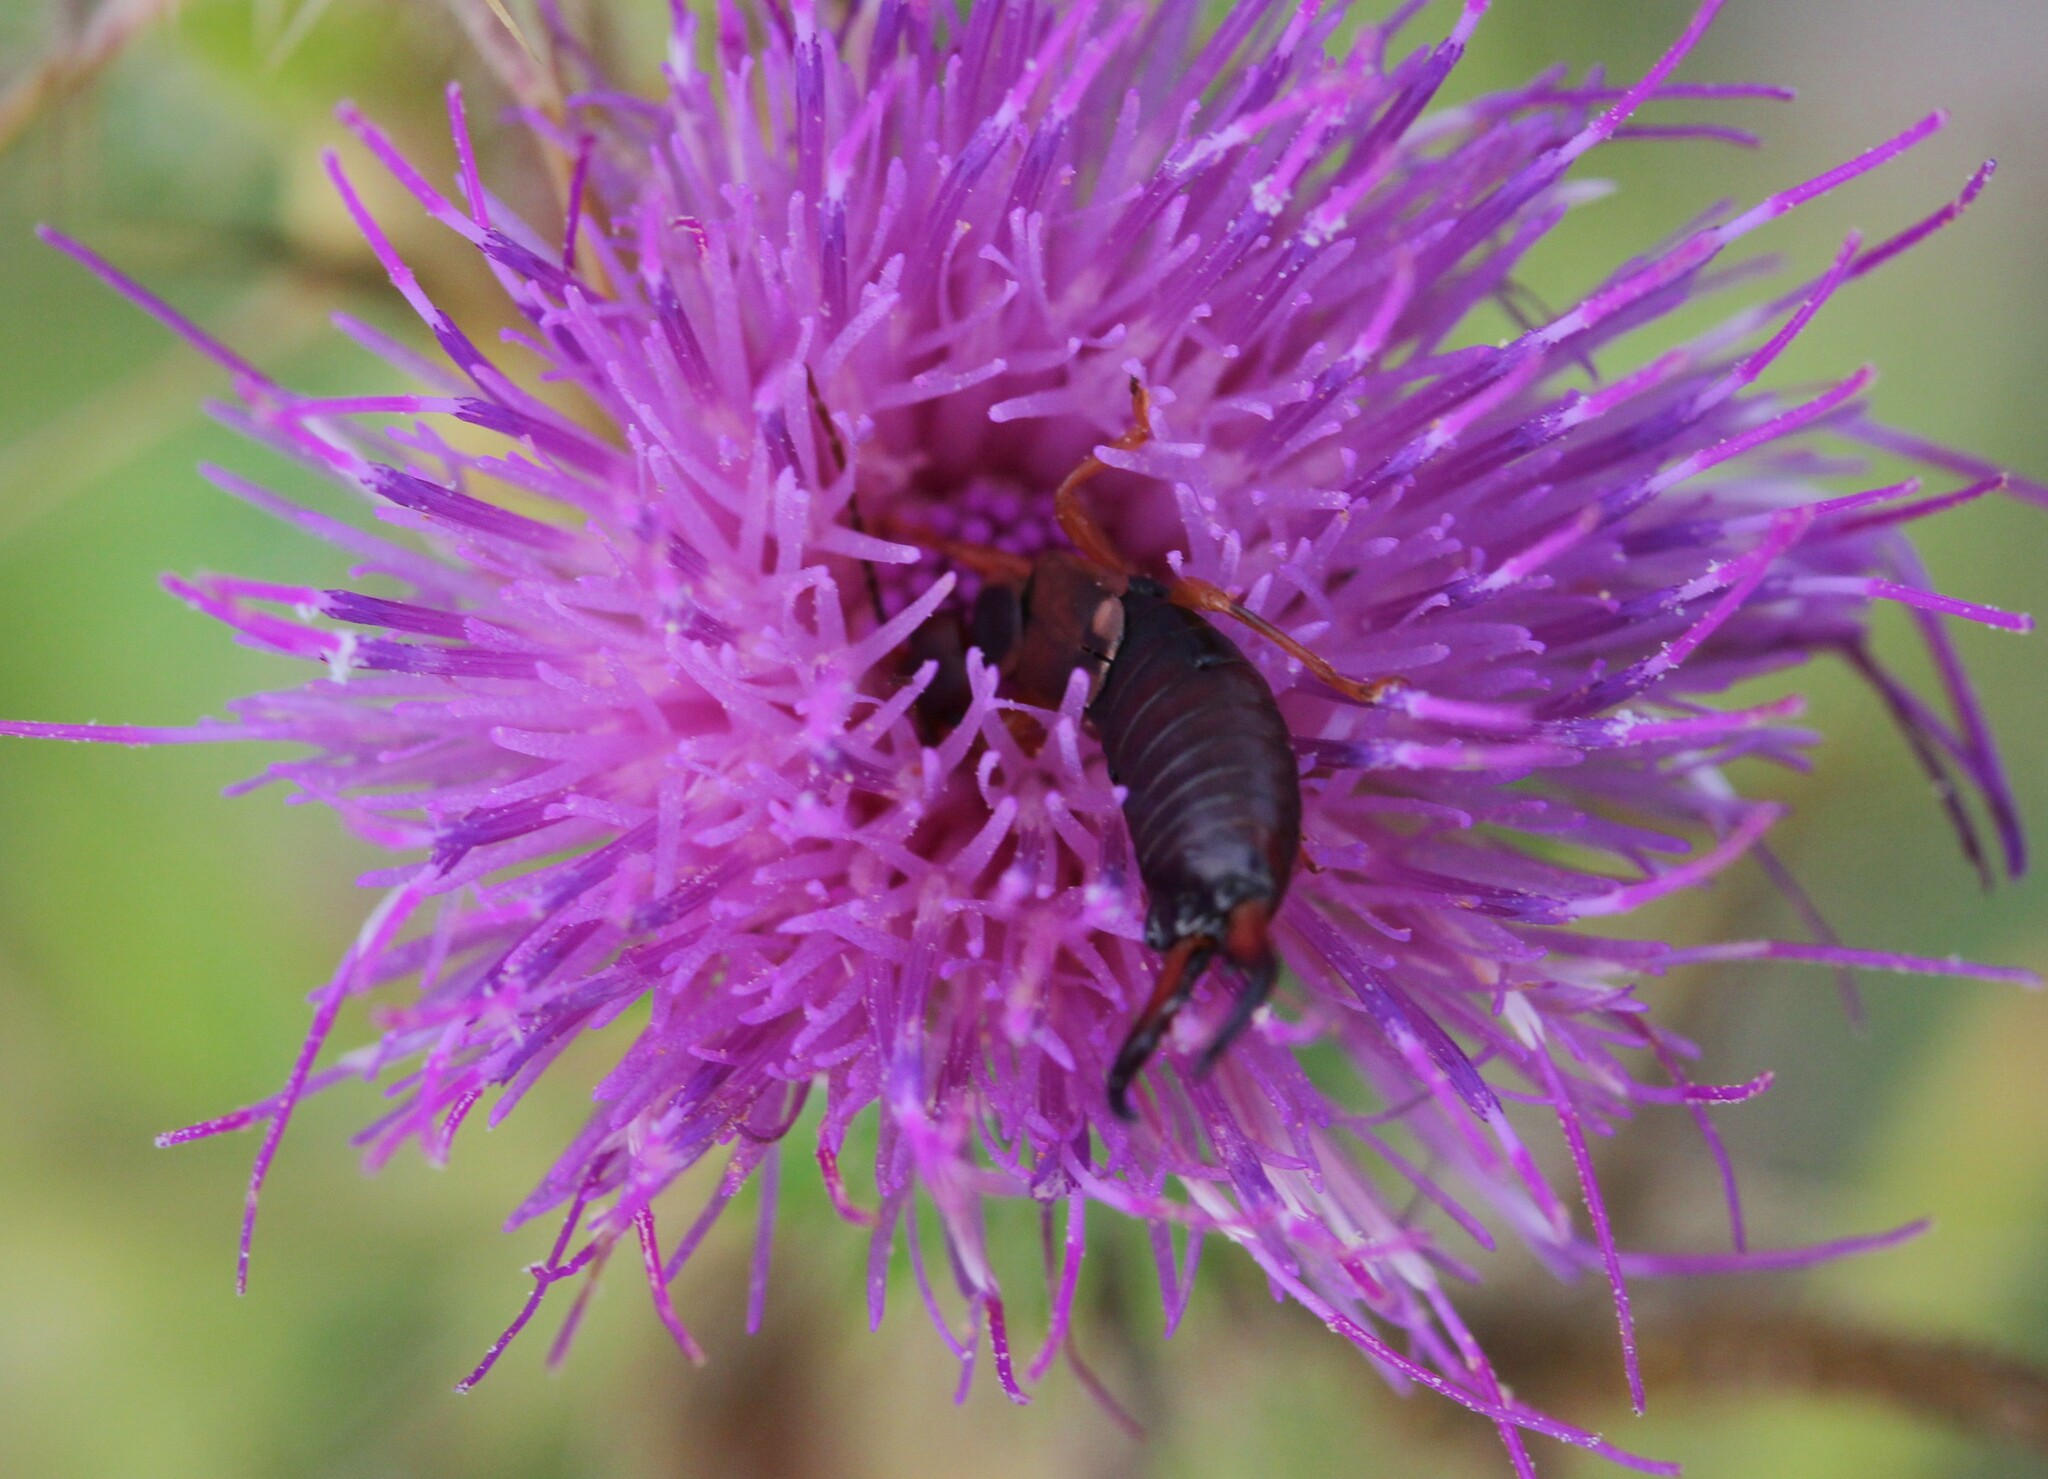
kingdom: Animalia
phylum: Arthropoda
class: Insecta
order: Dermaptera
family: Forficulidae
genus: Forficula
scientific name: Forficula
